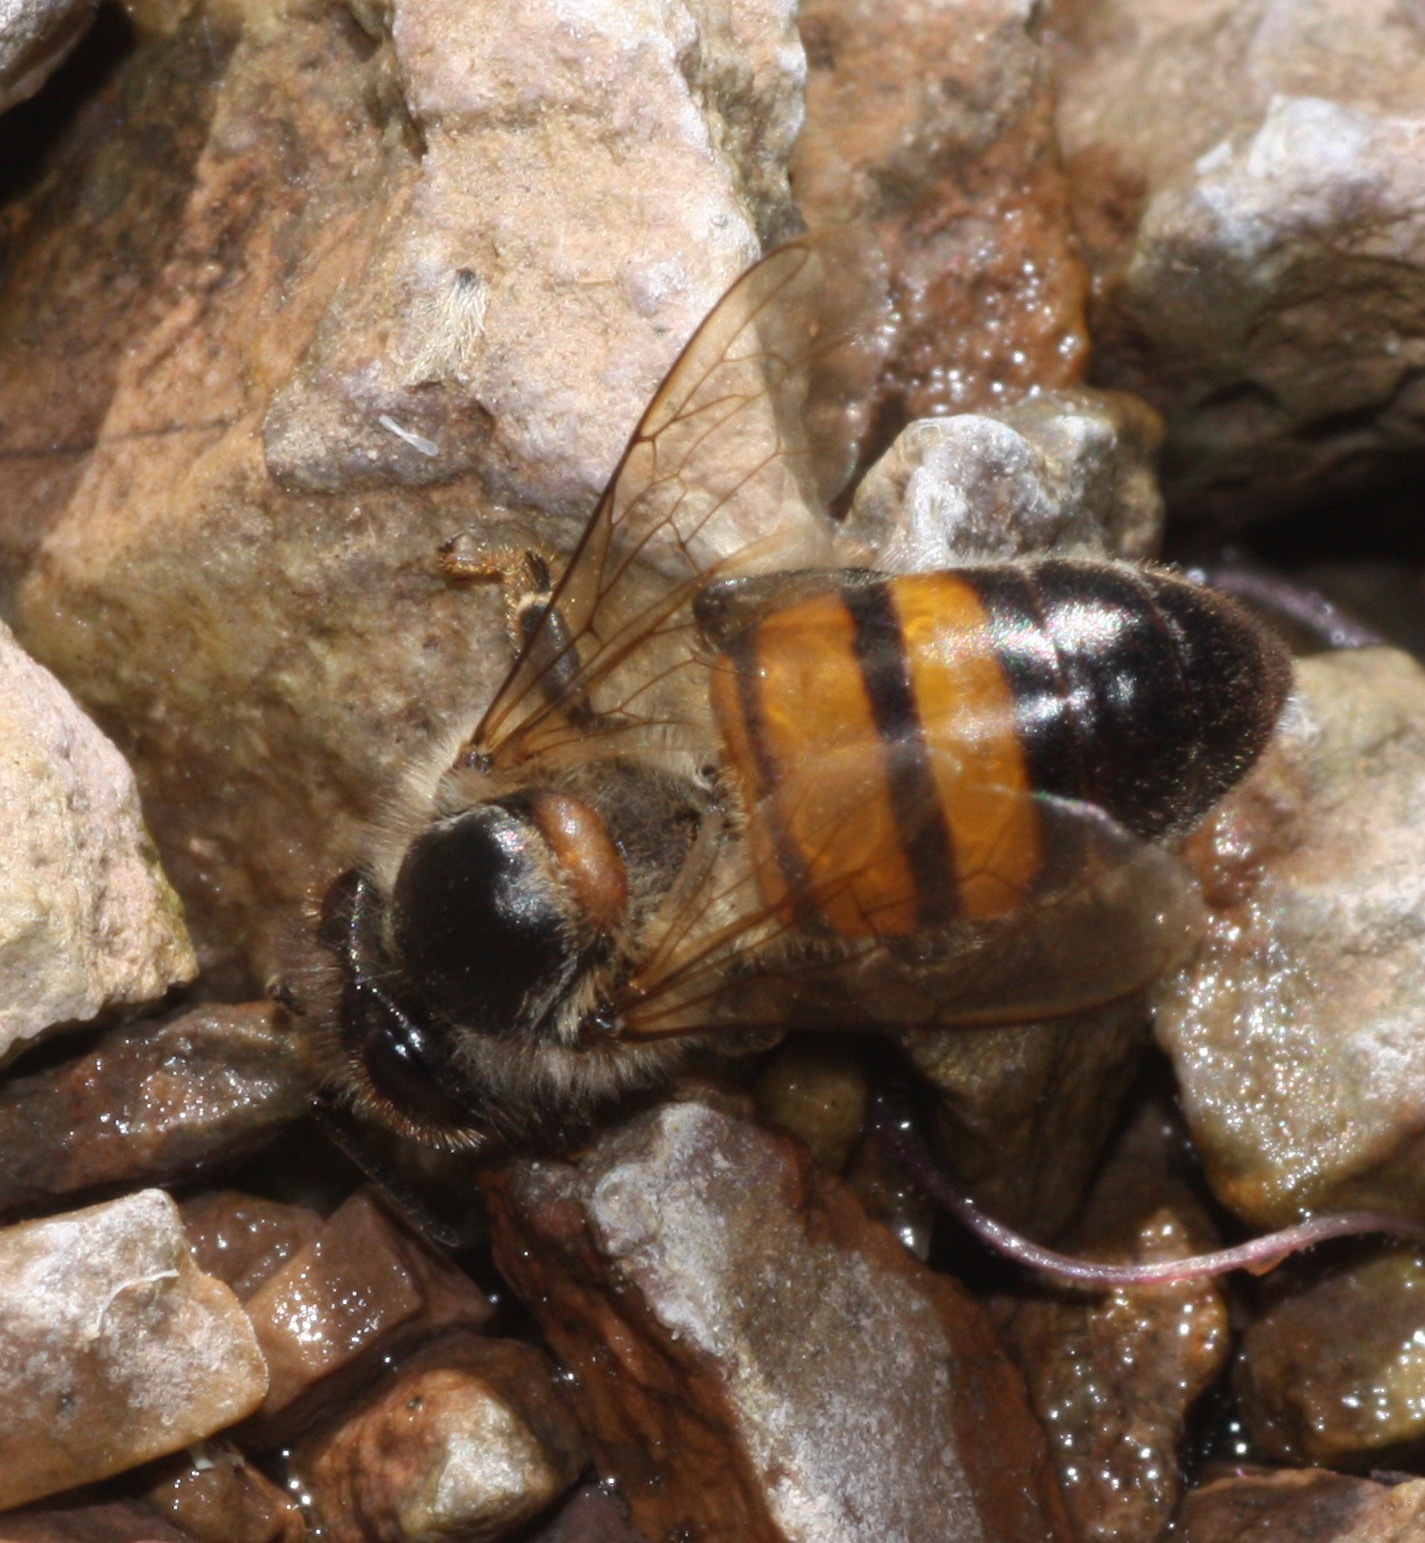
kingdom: Animalia
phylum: Arthropoda
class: Insecta
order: Hymenoptera
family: Apidae
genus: Apis
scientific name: Apis mellifera
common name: Honey bee
